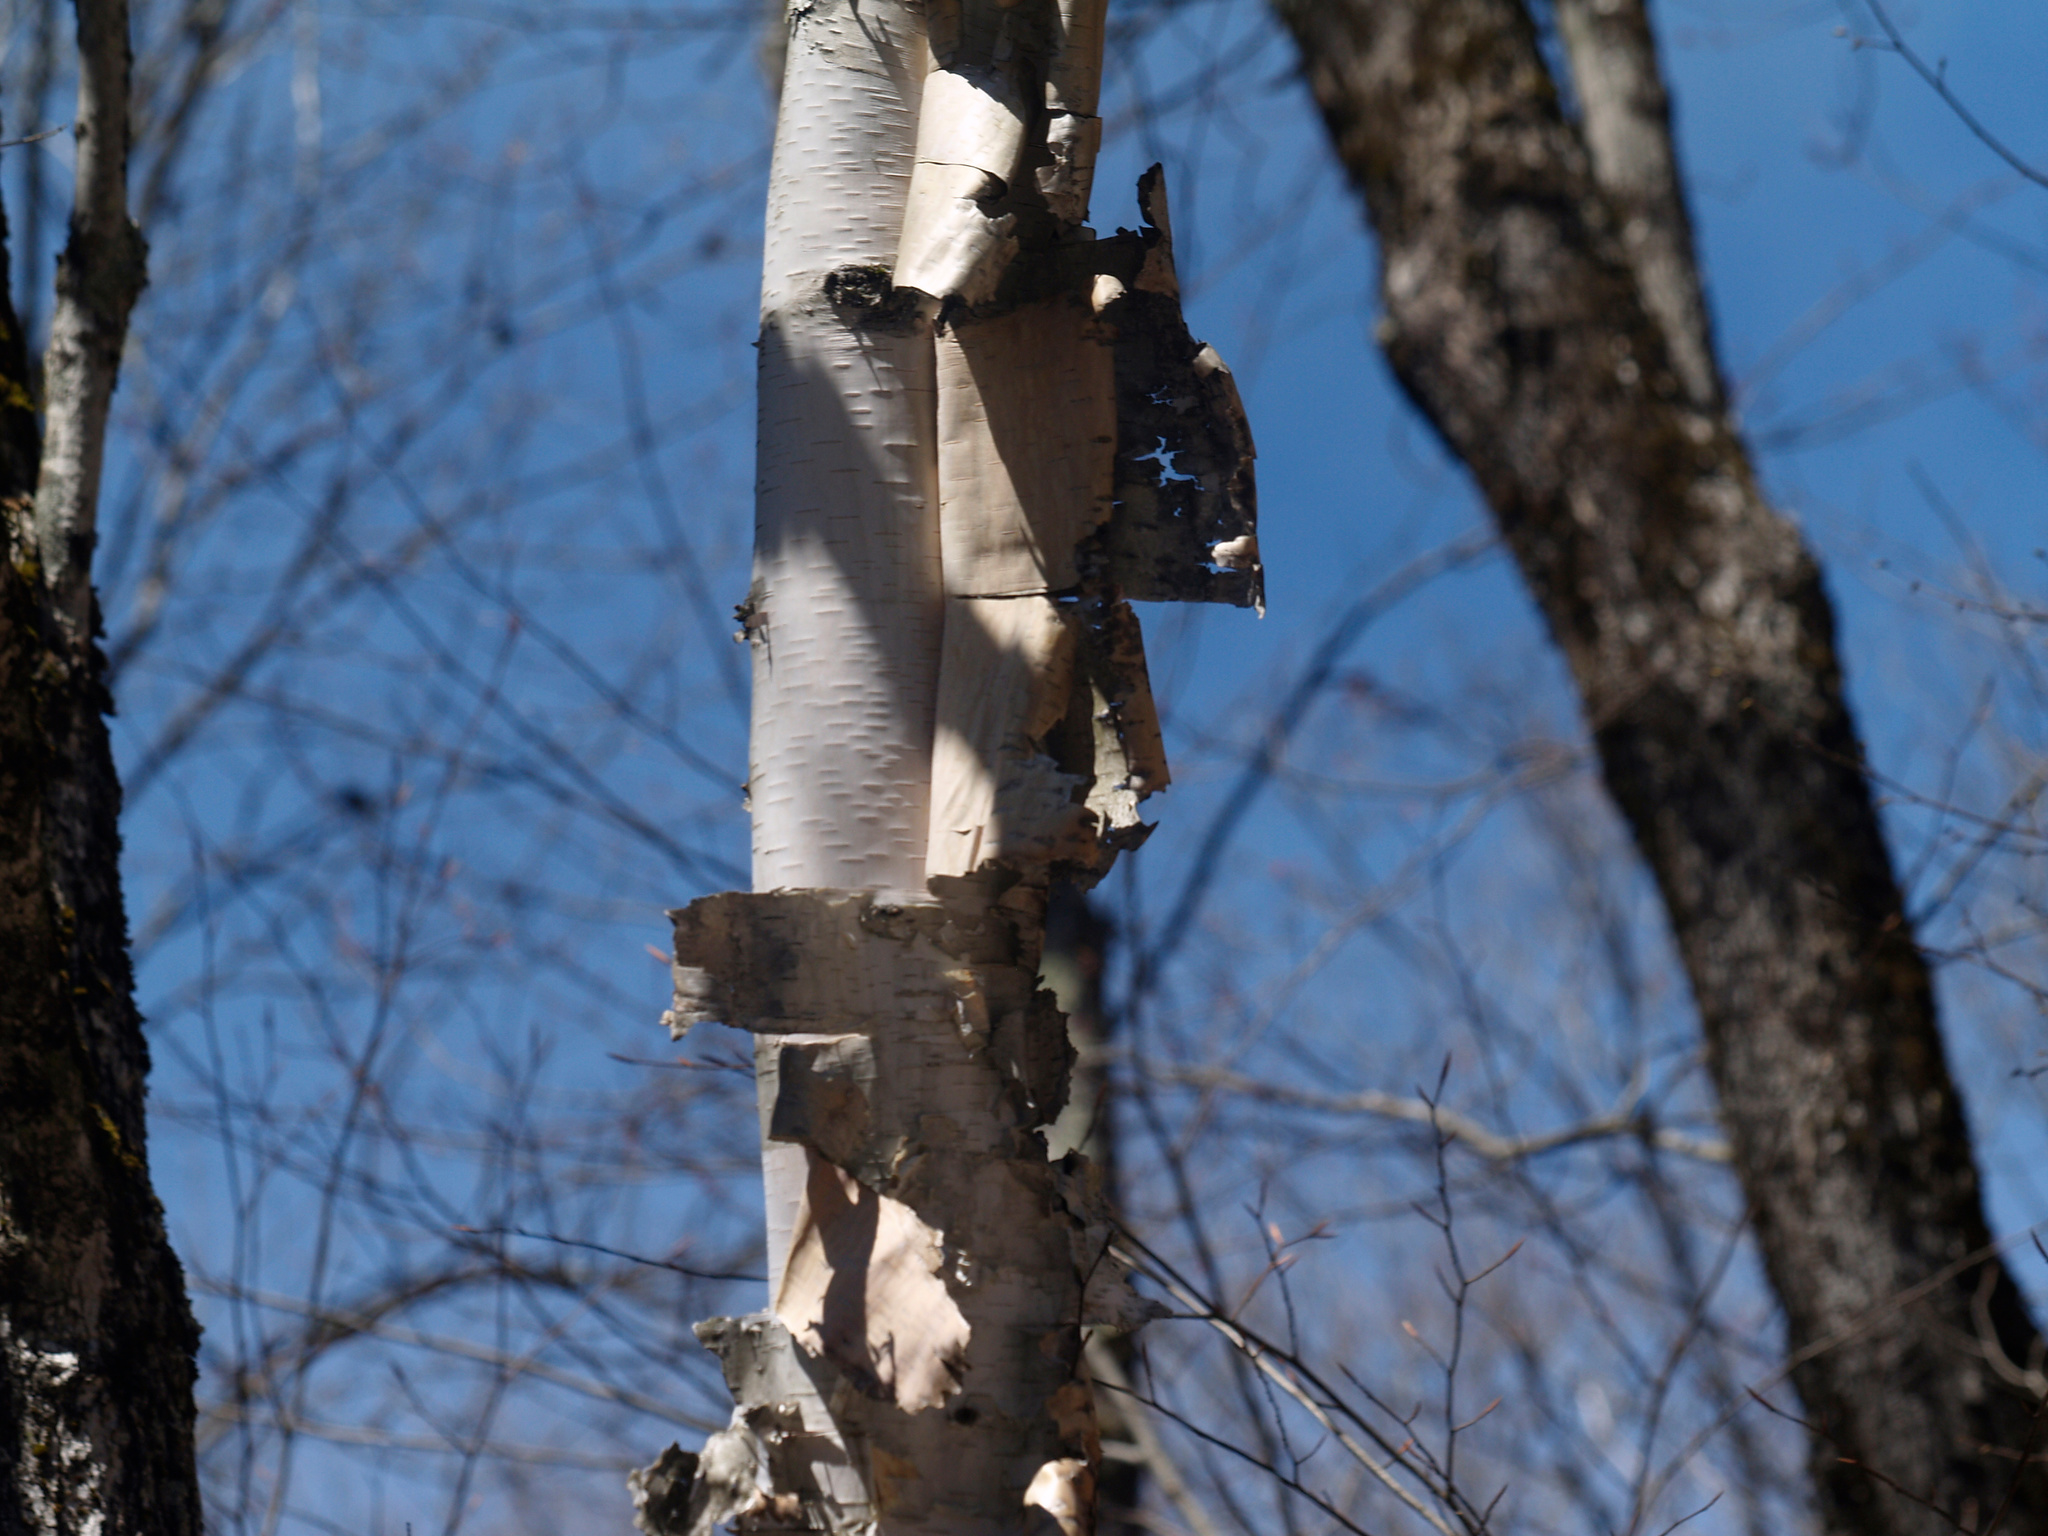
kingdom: Plantae
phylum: Tracheophyta
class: Magnoliopsida
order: Fagales
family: Betulaceae
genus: Betula
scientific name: Betula papyrifera
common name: Paper birch
